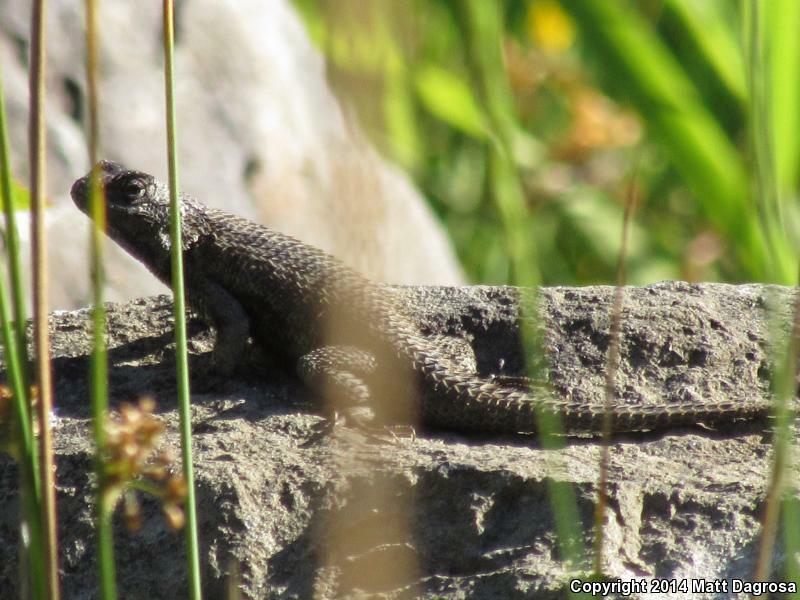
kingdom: Animalia
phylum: Chordata
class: Squamata
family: Phrynosomatidae
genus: Sceloporus
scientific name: Sceloporus occidentalis
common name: Western fence lizard
